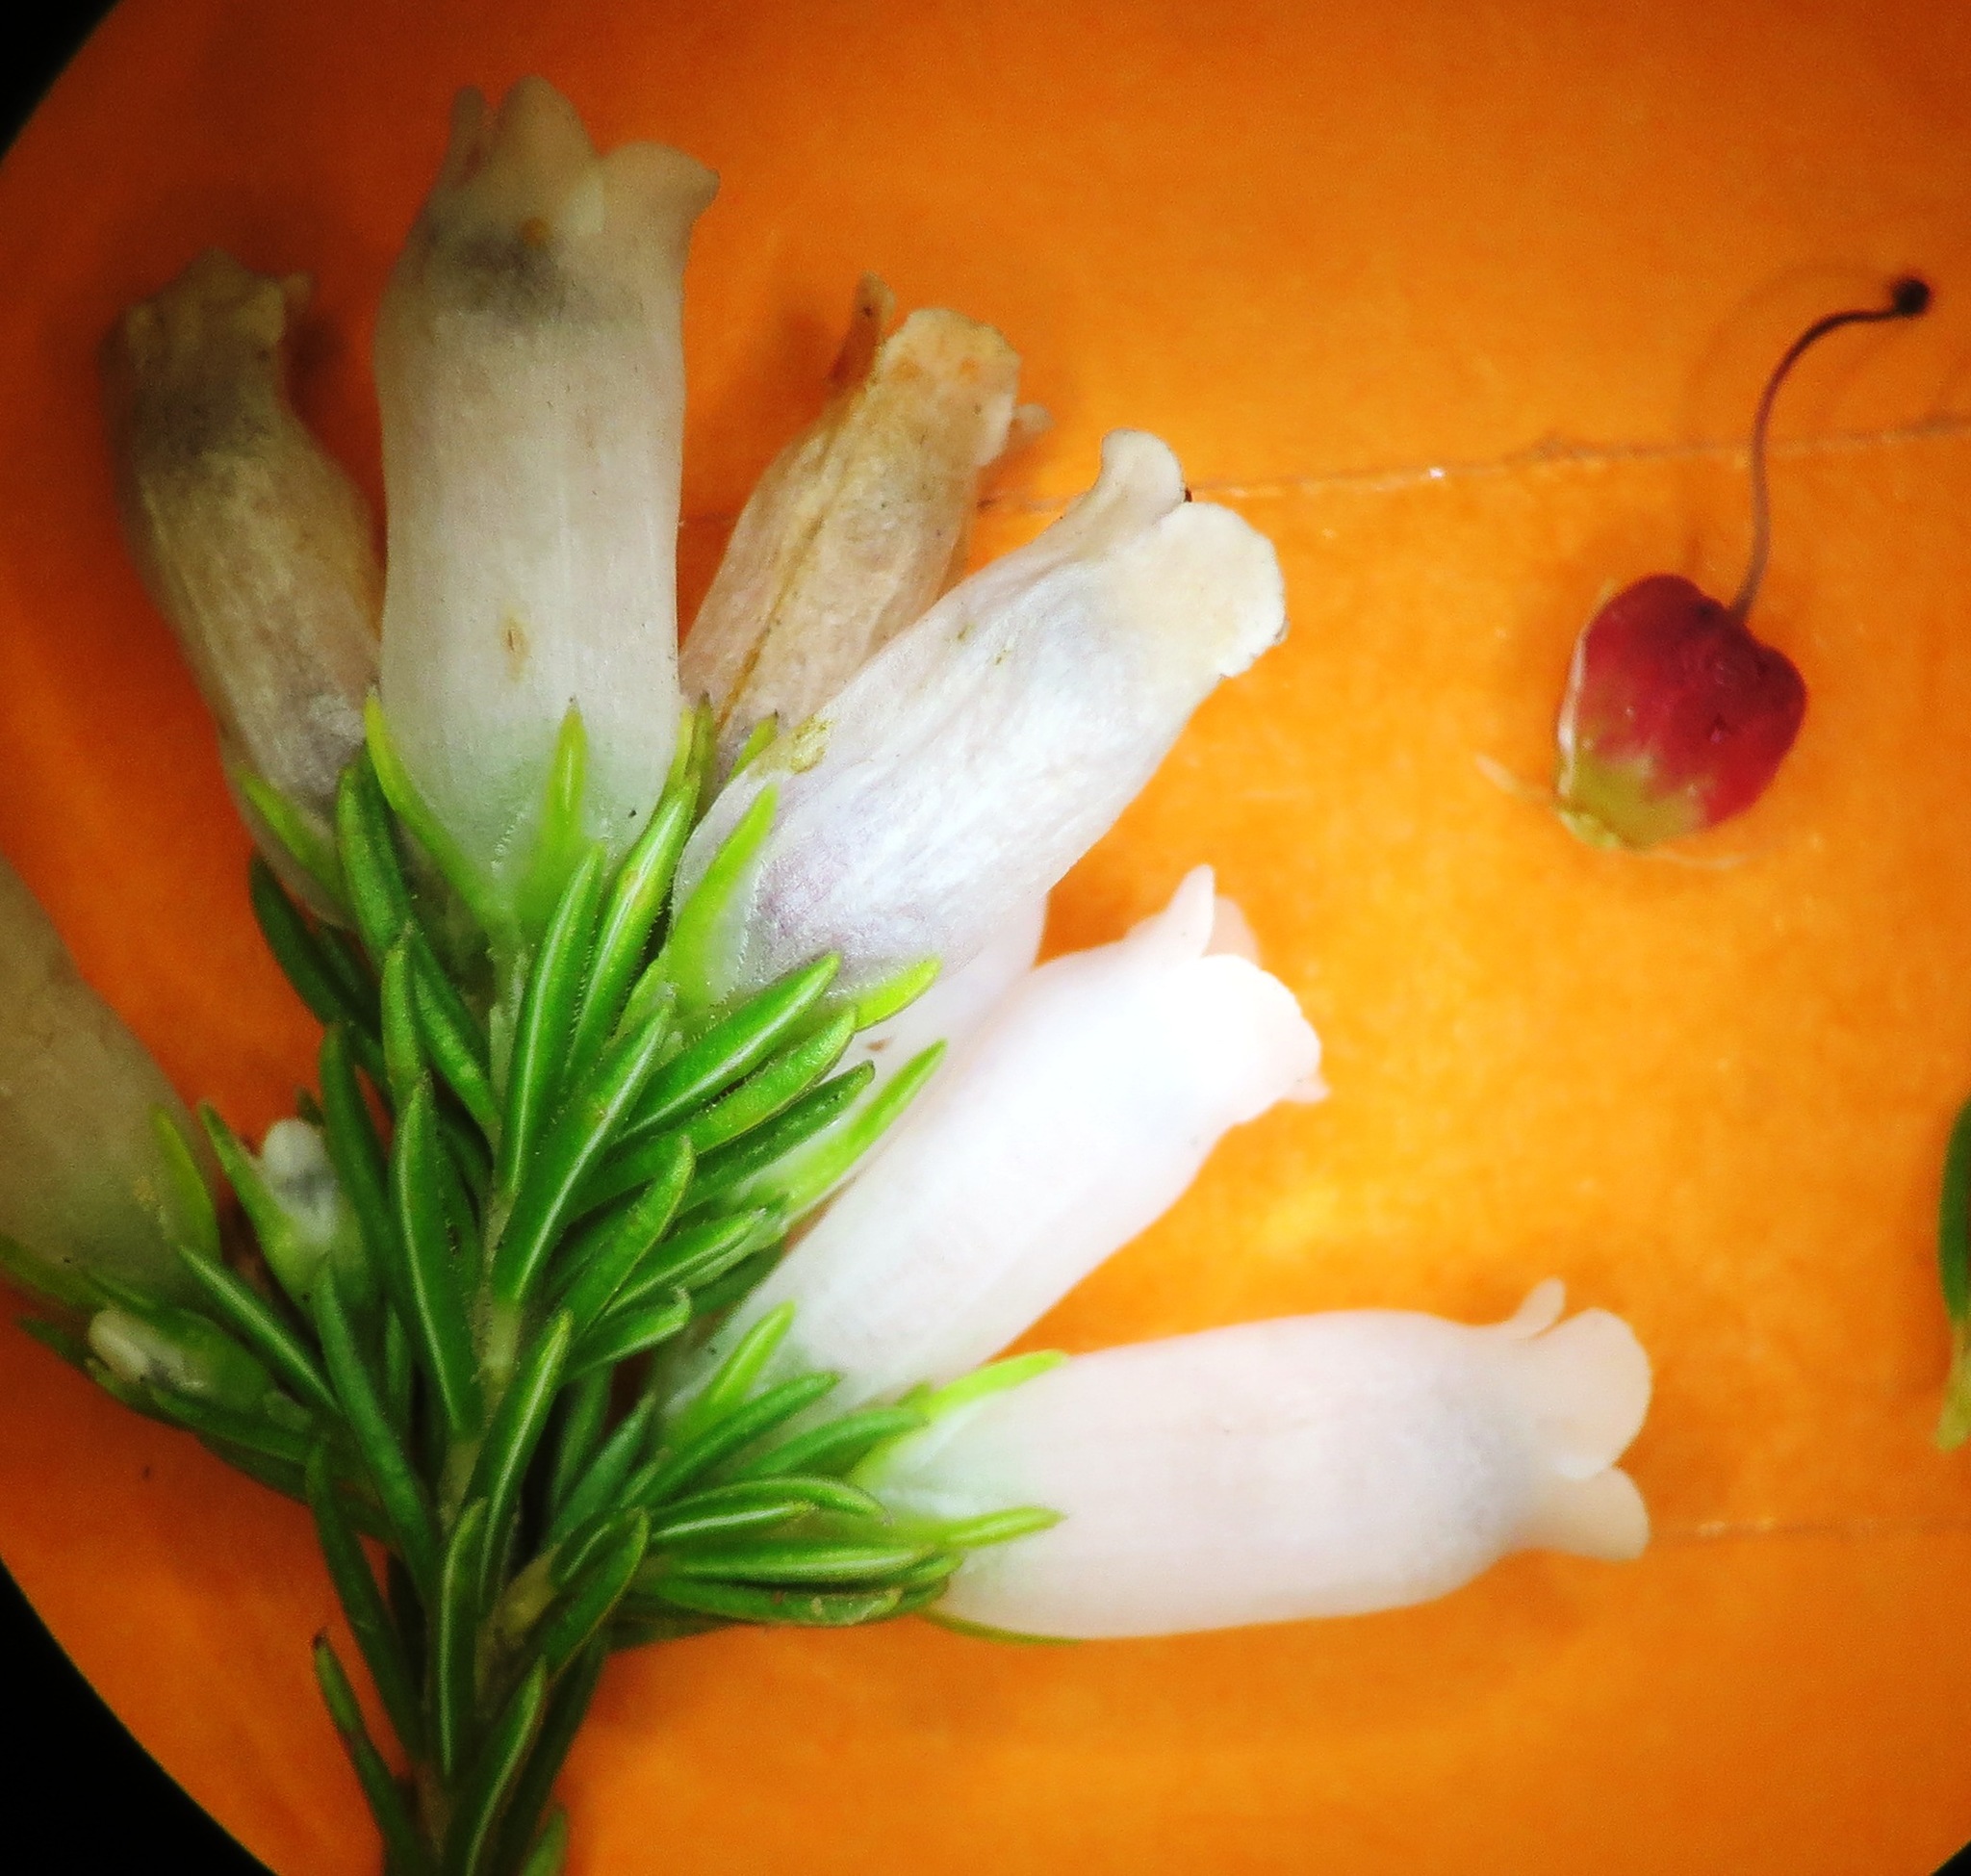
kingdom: Plantae
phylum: Tracheophyta
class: Magnoliopsida
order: Ericales
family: Ericaceae
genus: Erica
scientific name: Erica sitiens
